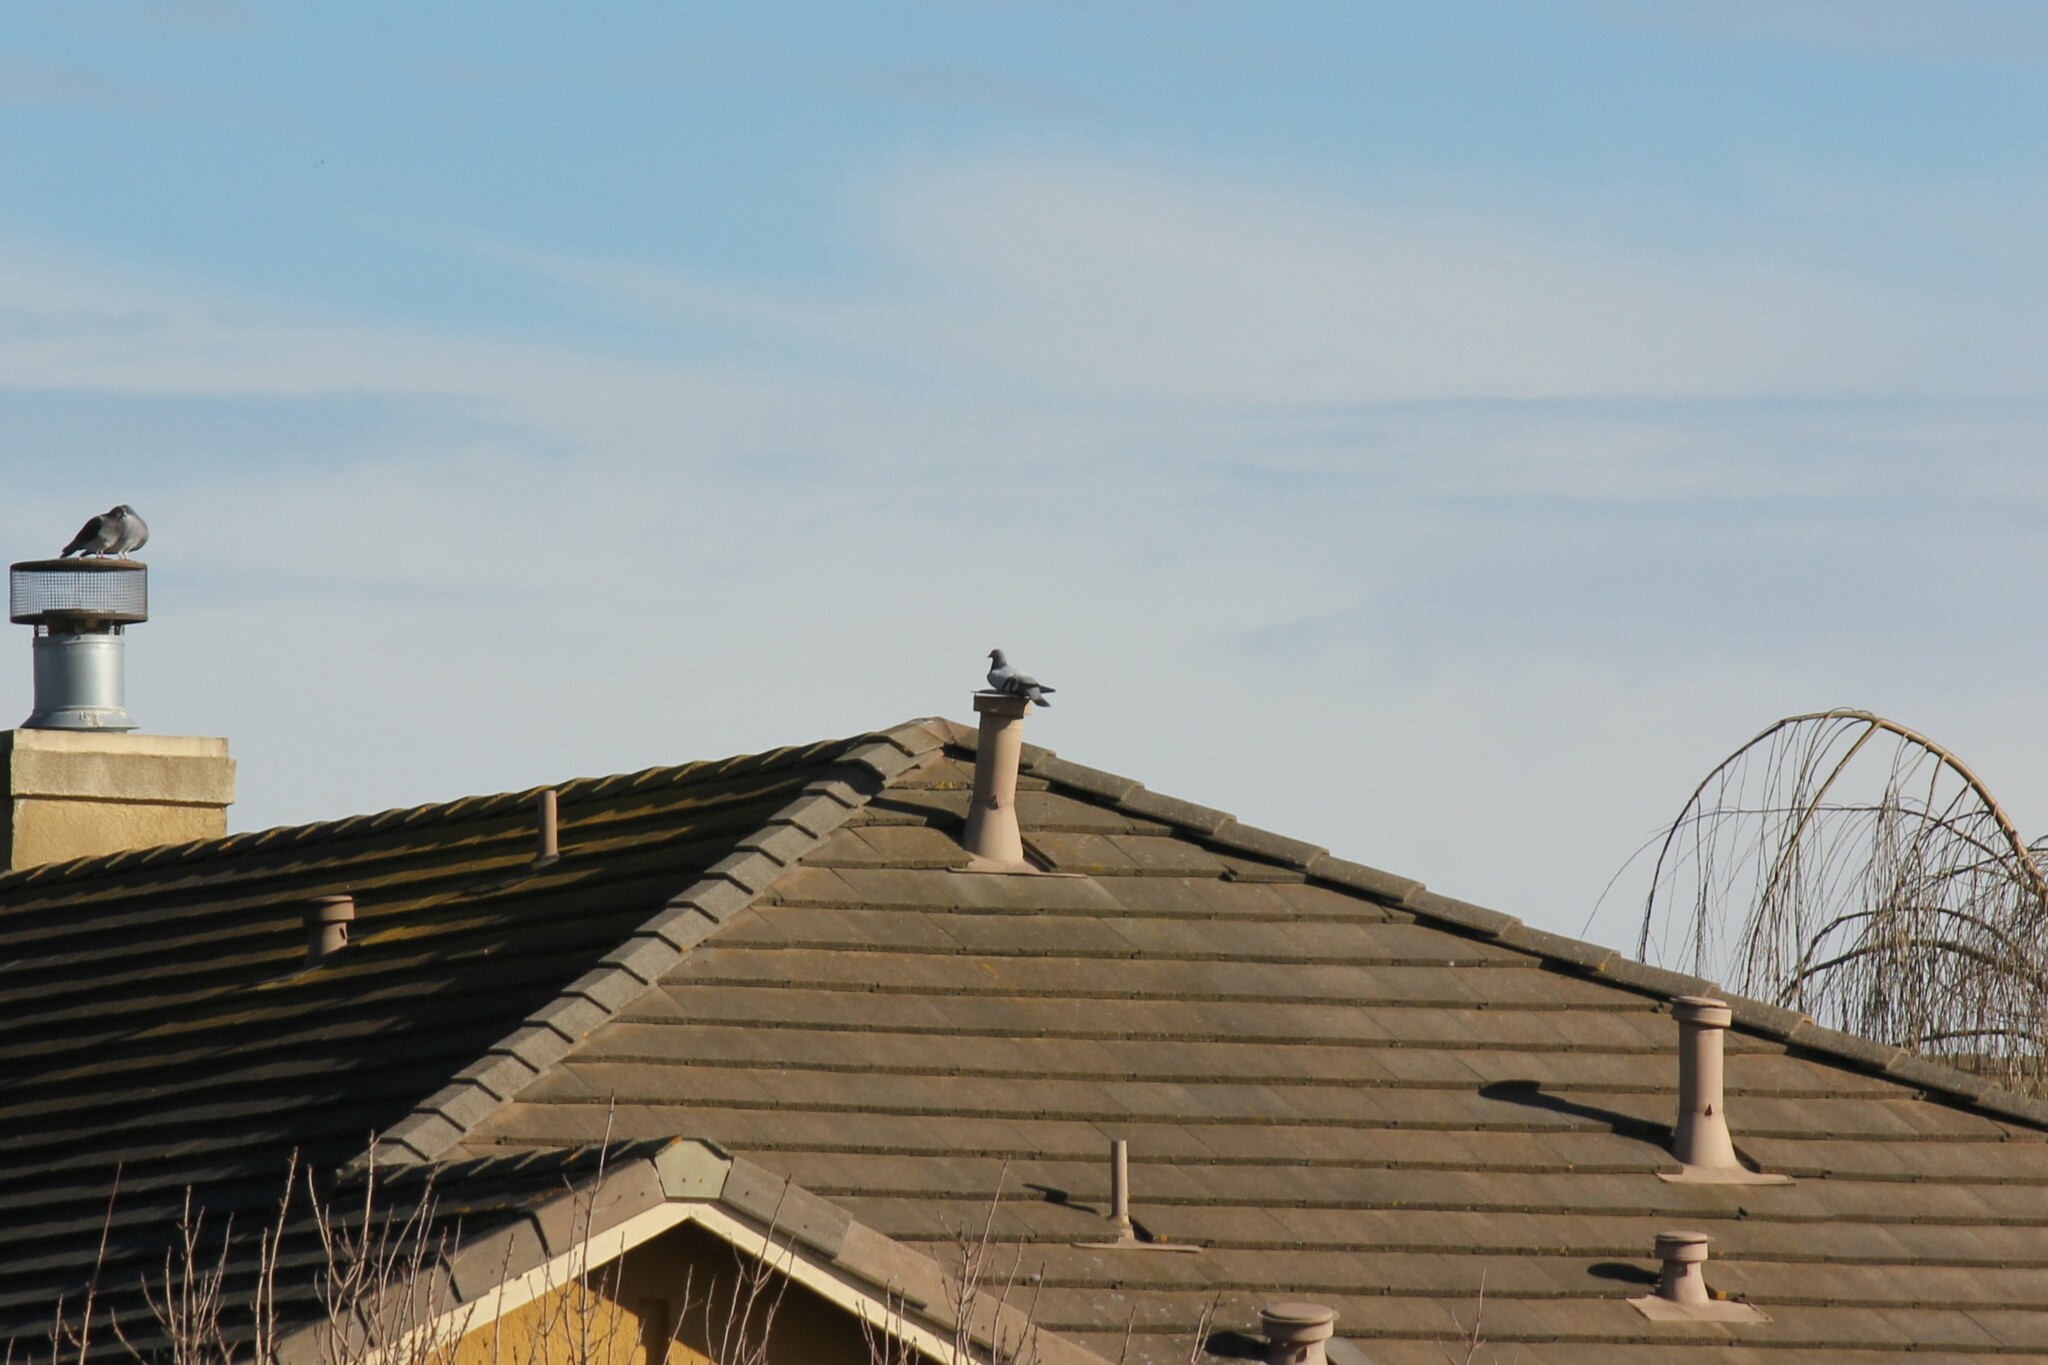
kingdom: Animalia
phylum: Chordata
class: Aves
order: Columbiformes
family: Columbidae
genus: Columba
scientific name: Columba livia
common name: Rock pigeon
